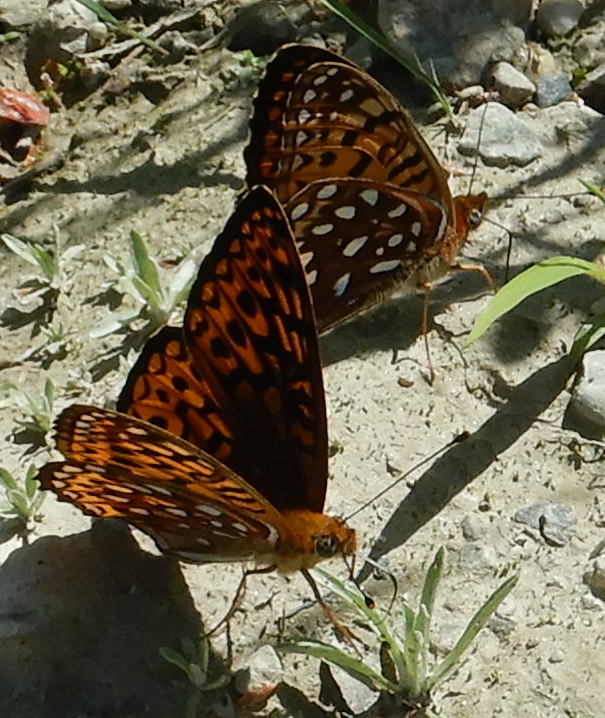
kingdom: Animalia
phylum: Arthropoda
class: Insecta
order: Lepidoptera
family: Nymphalidae
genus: Speyeria
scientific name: Speyeria atlantis
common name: Atlantis fritillary
